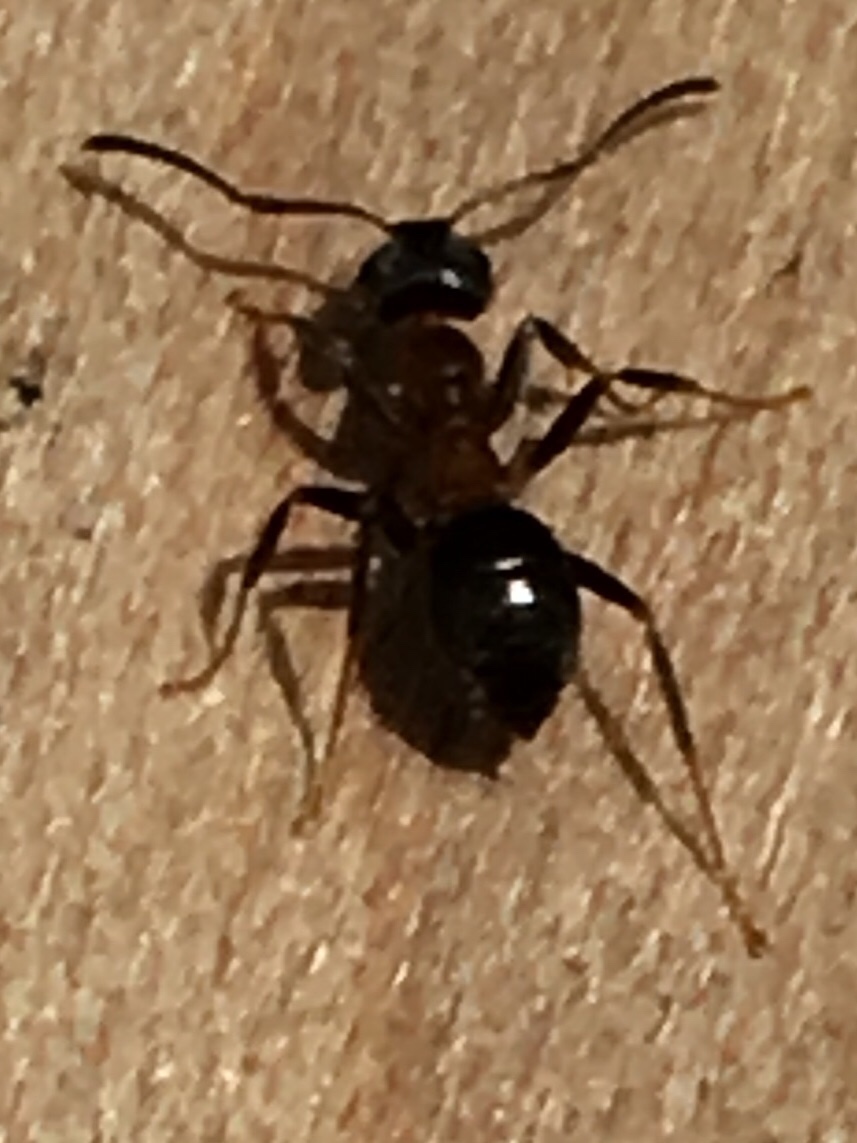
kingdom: Animalia
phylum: Arthropoda
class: Insecta
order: Hymenoptera
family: Formicidae
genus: Lasius
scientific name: Lasius emarginatus
